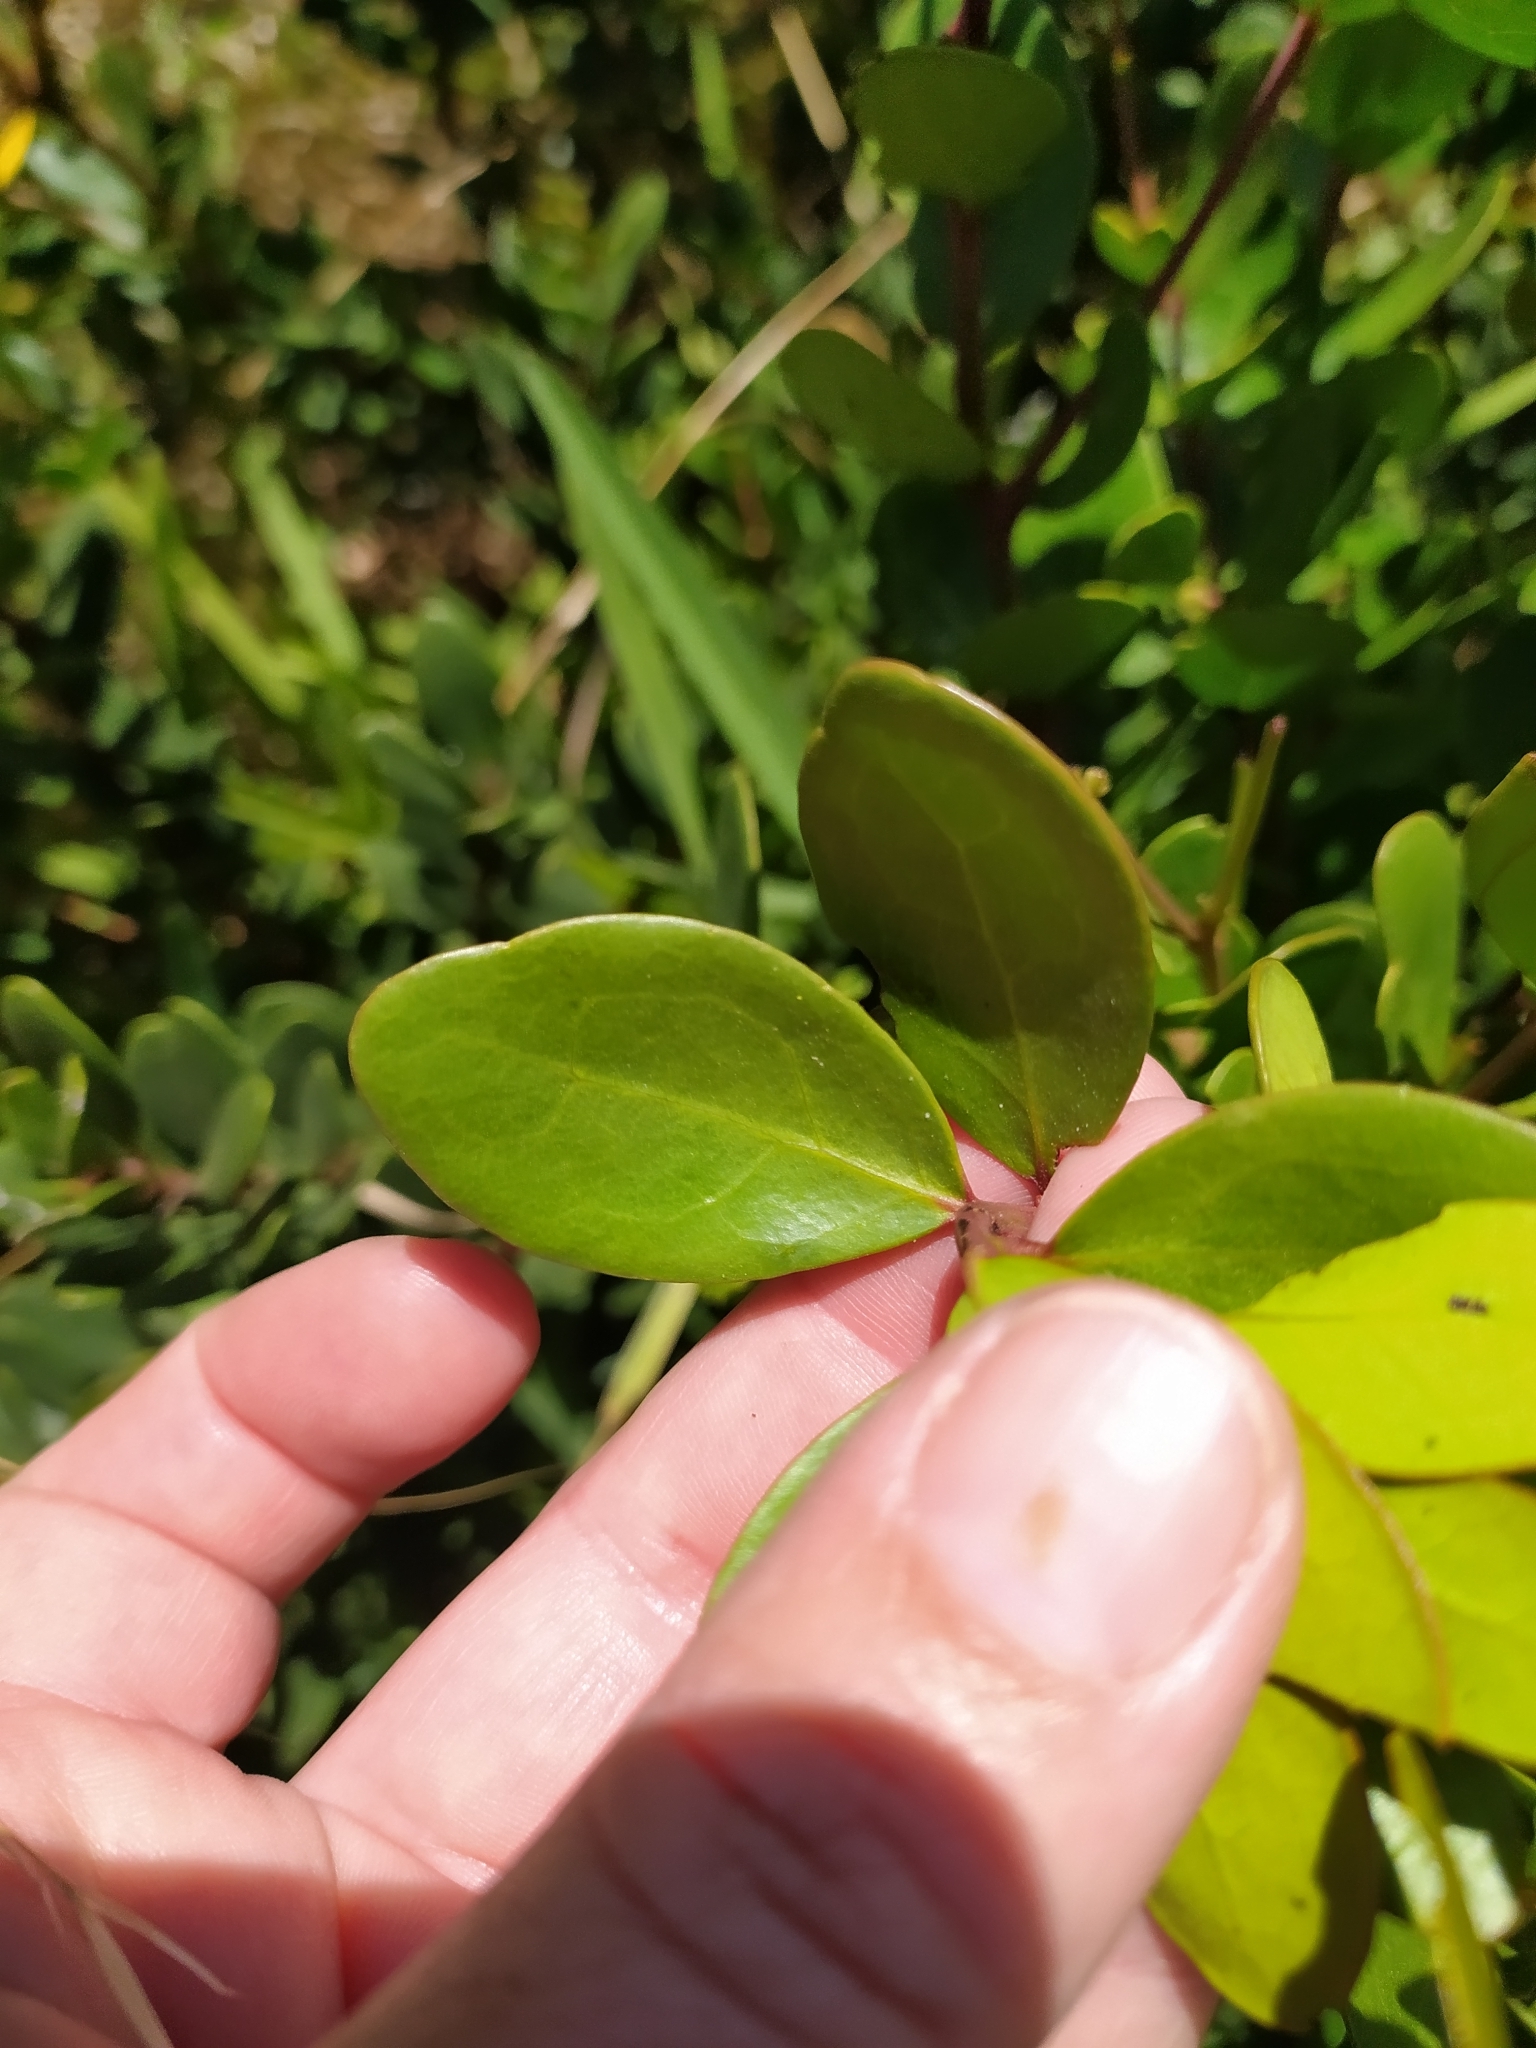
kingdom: Plantae
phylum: Tracheophyta
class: Magnoliopsida
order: Ericales
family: Ebenaceae
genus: Euclea
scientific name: Euclea racemosa
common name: Dune guarri
